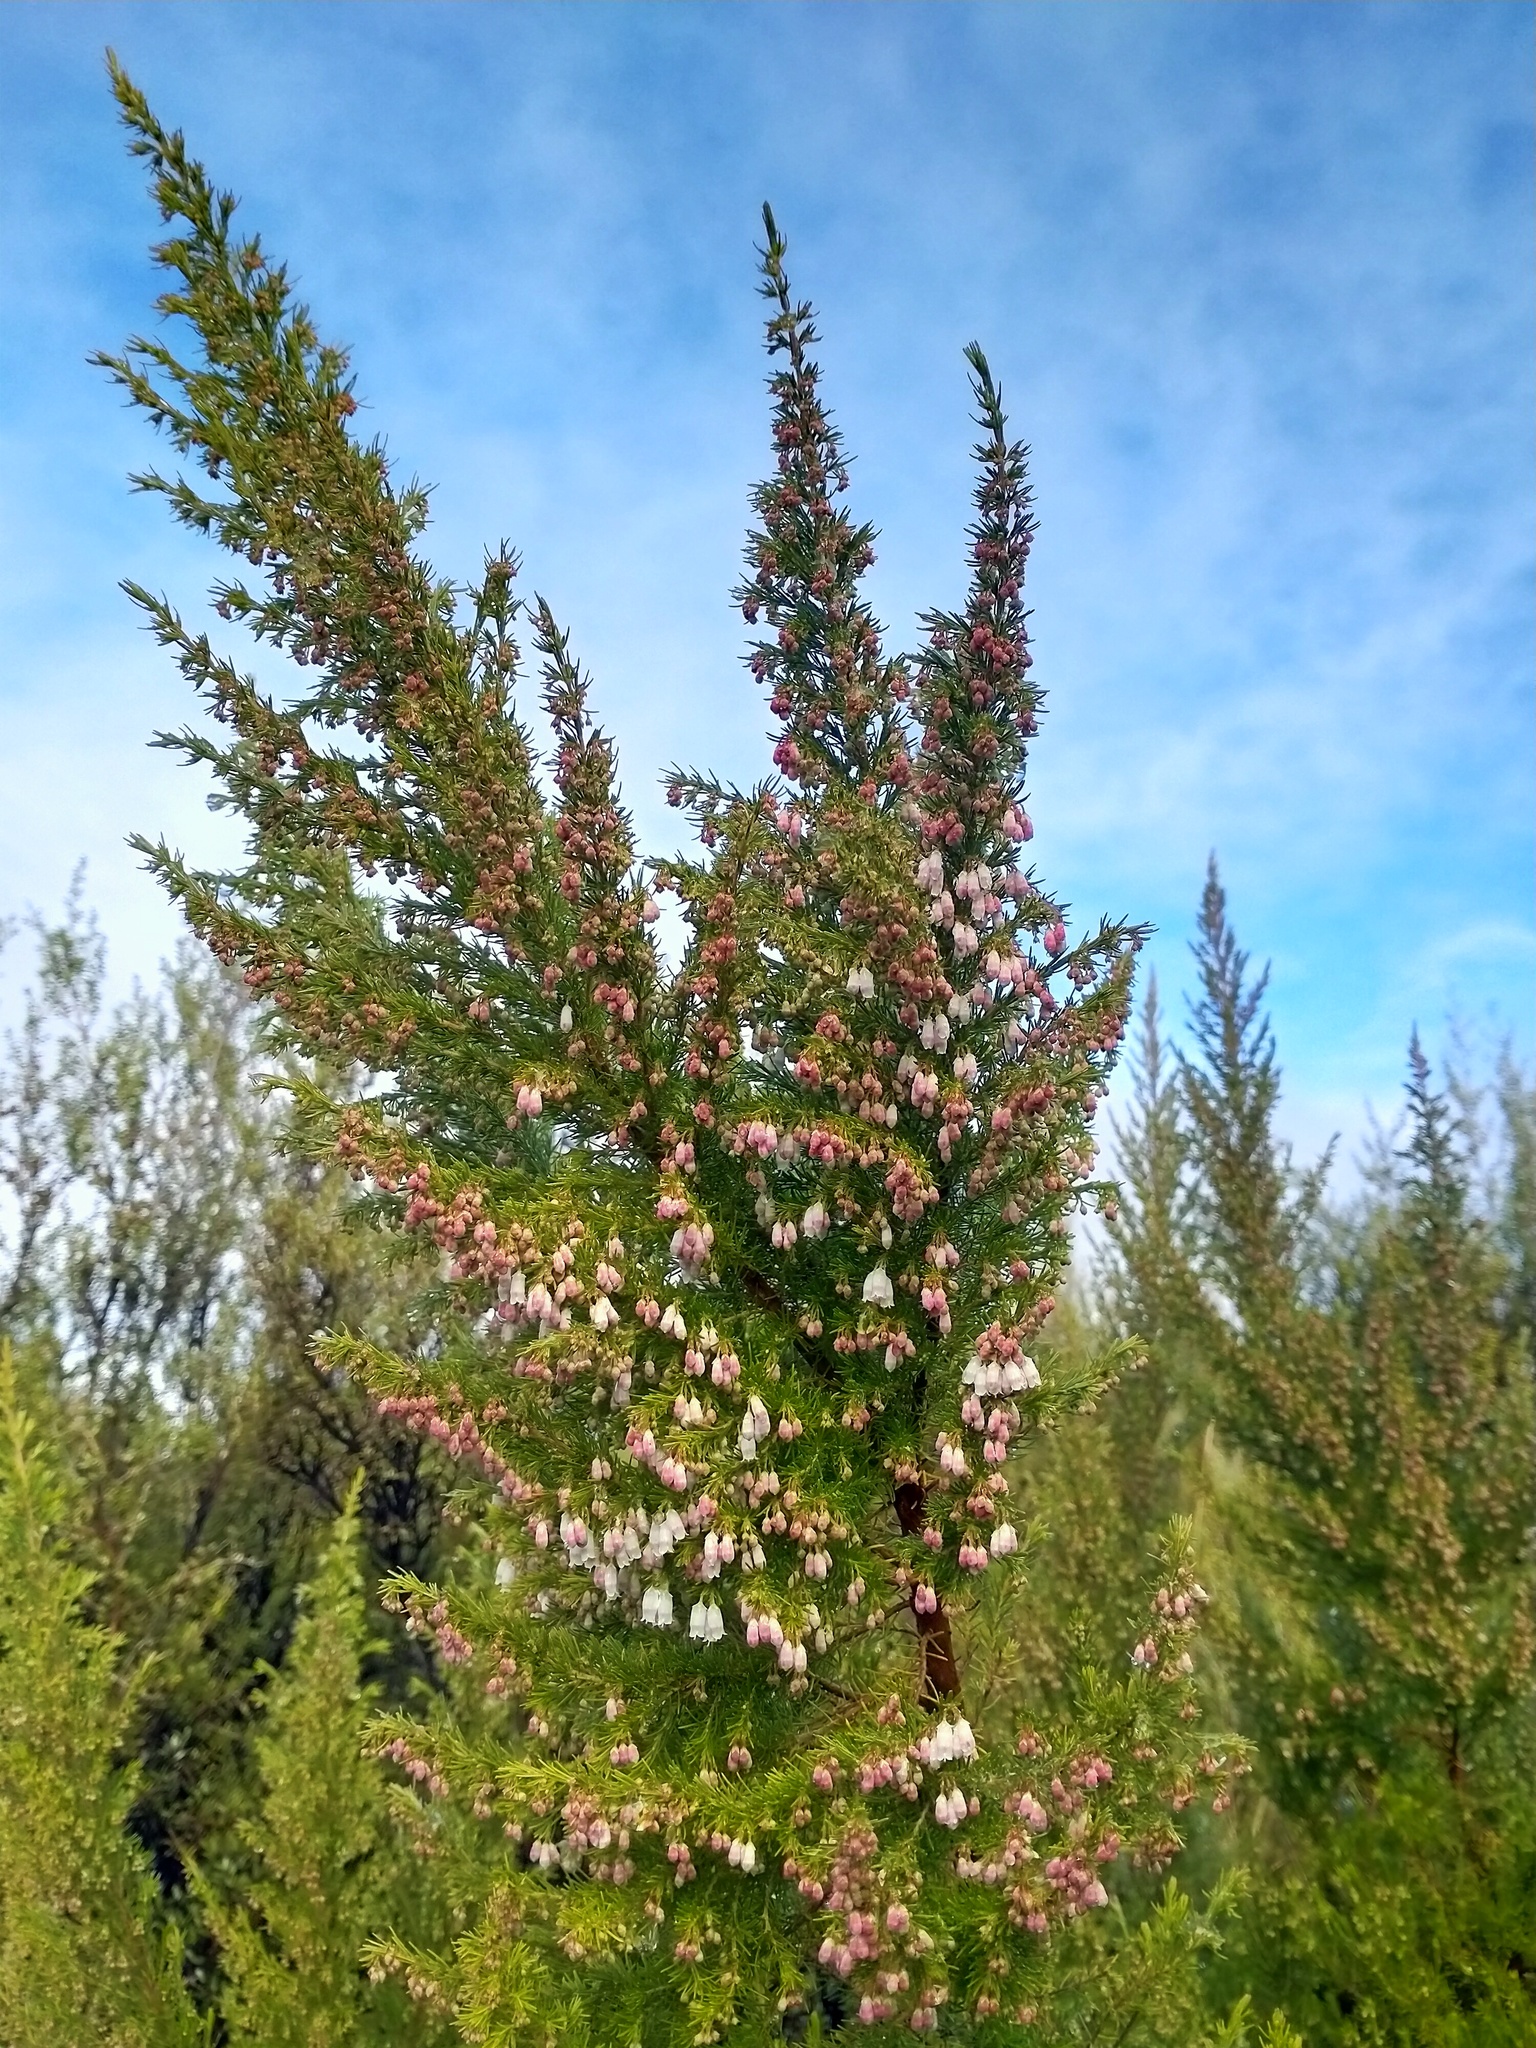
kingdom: Plantae
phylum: Tracheophyta
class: Magnoliopsida
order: Ericales
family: Ericaceae
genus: Erica
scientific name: Erica lusitanica
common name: Spanish heath
